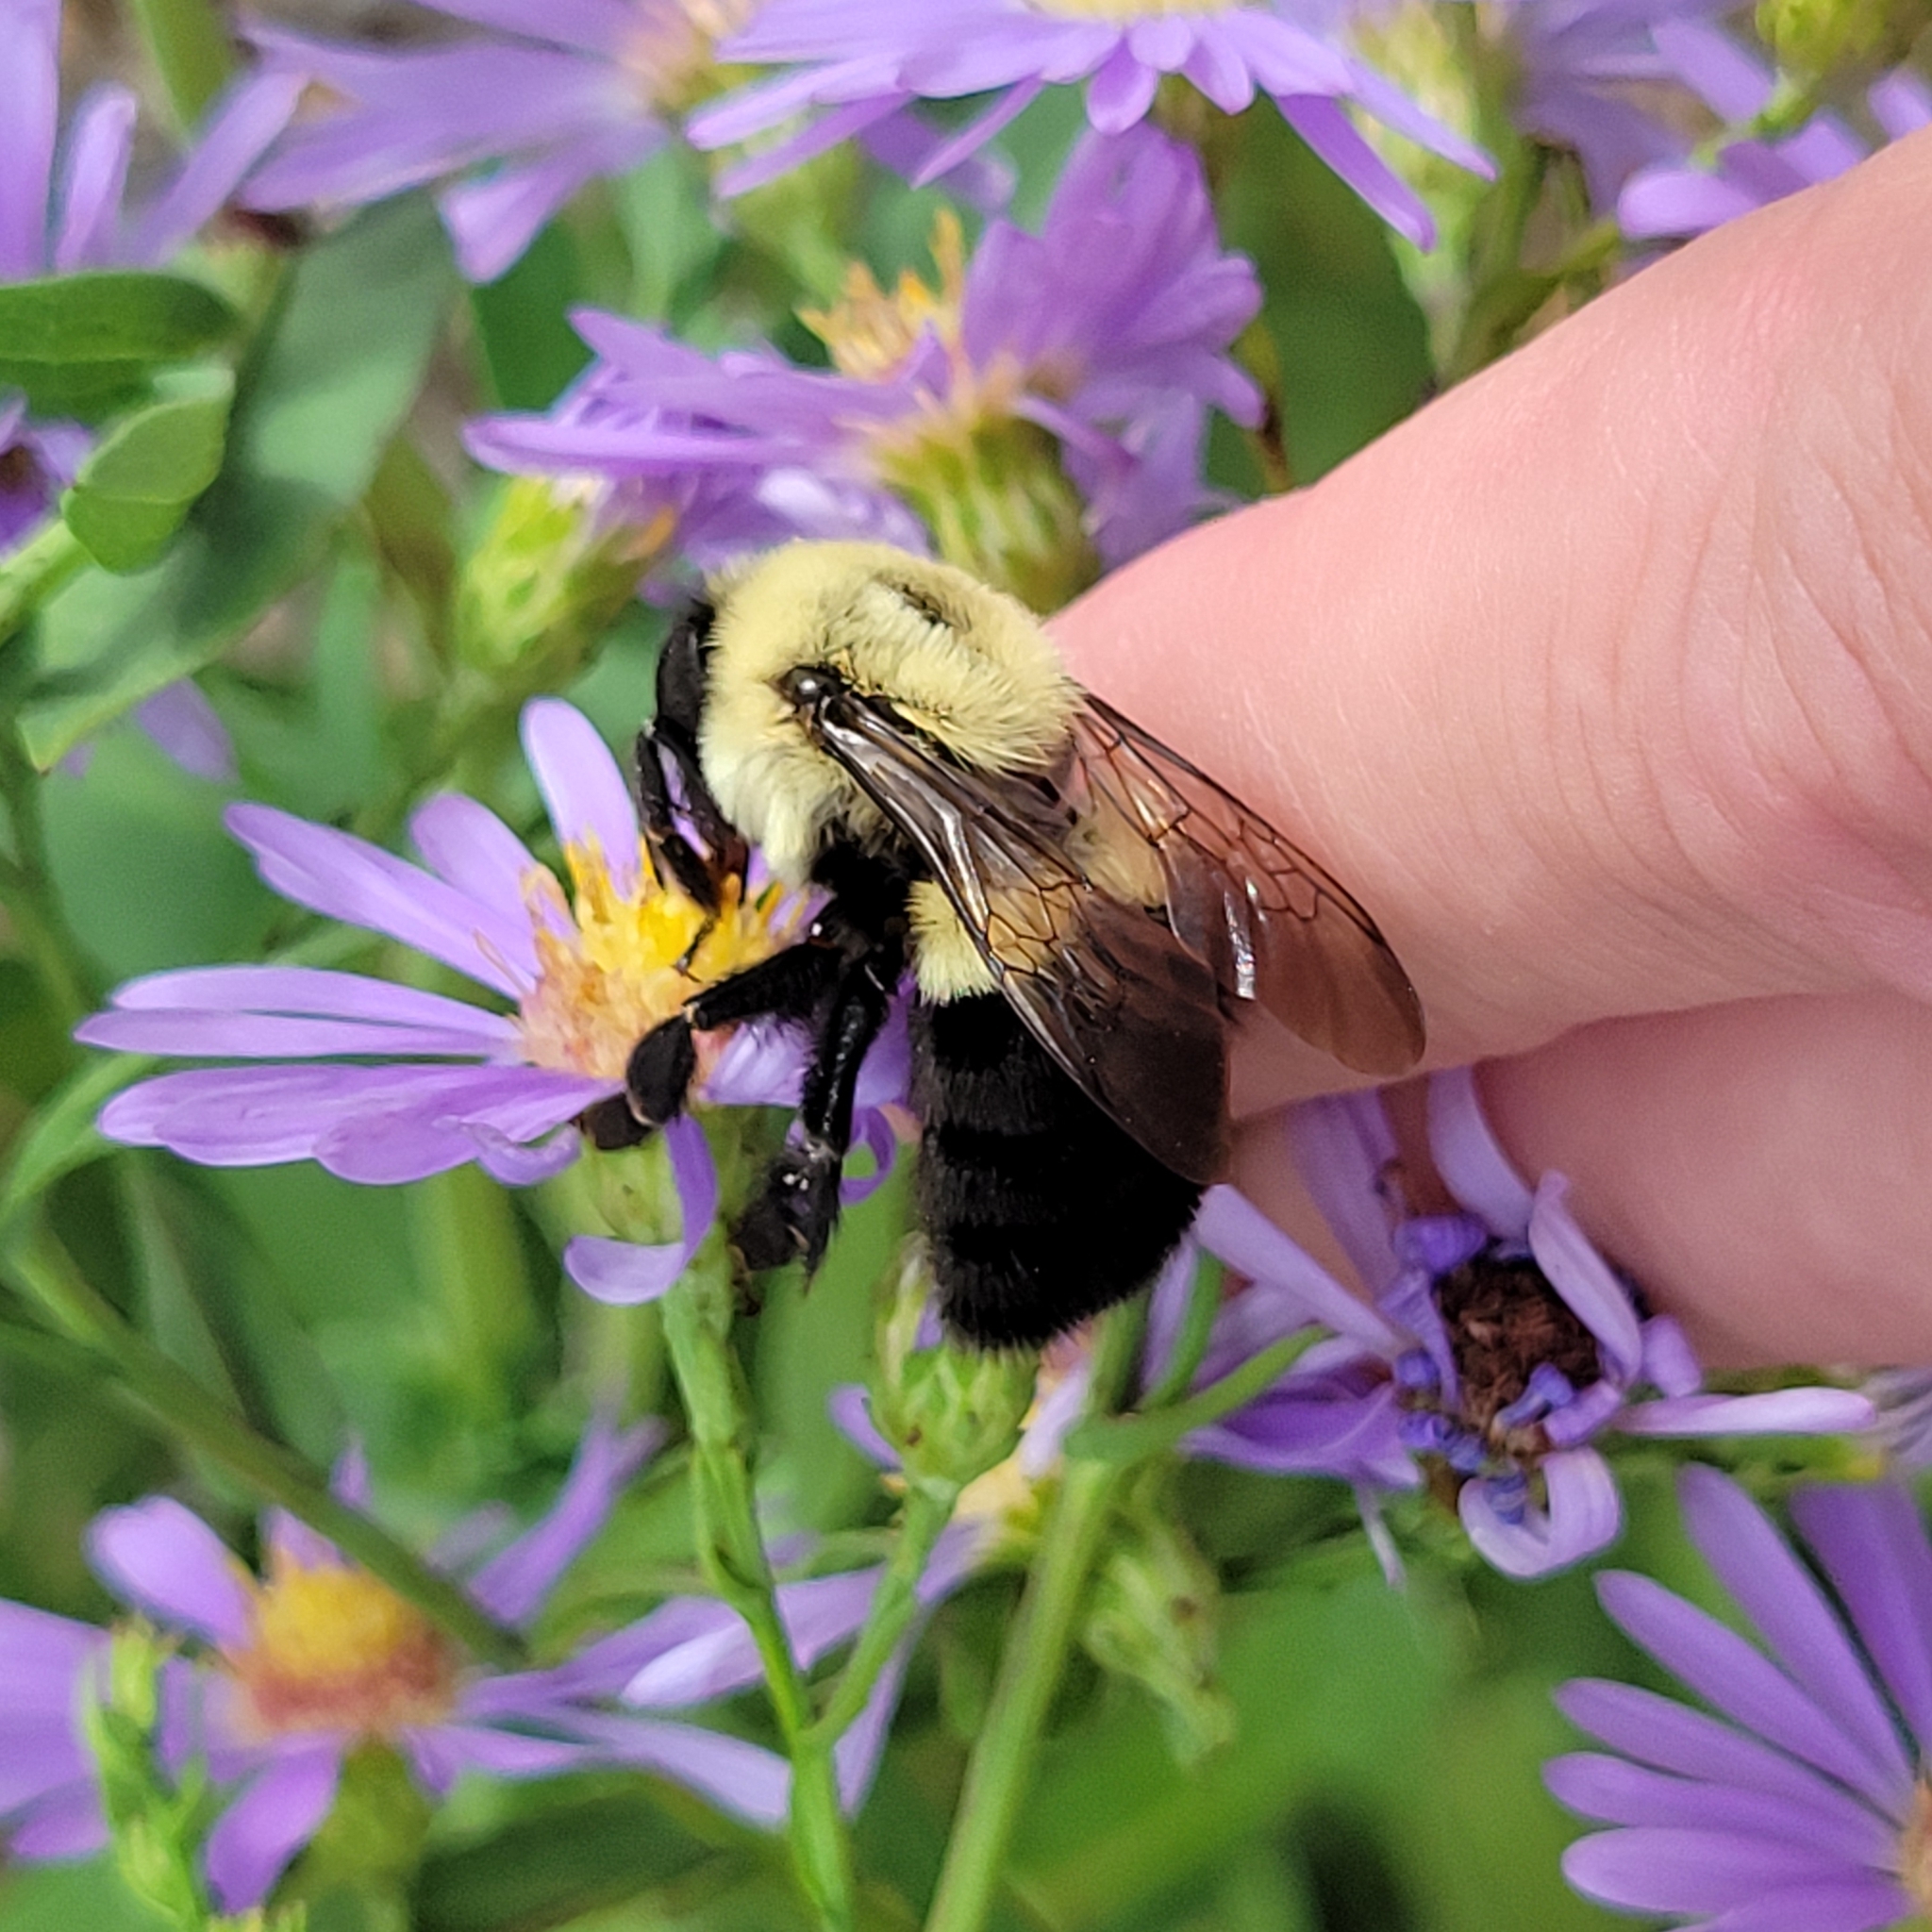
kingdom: Animalia
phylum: Arthropoda
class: Insecta
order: Hymenoptera
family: Apidae
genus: Bombus
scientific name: Bombus impatiens
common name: Common eastern bumble bee
